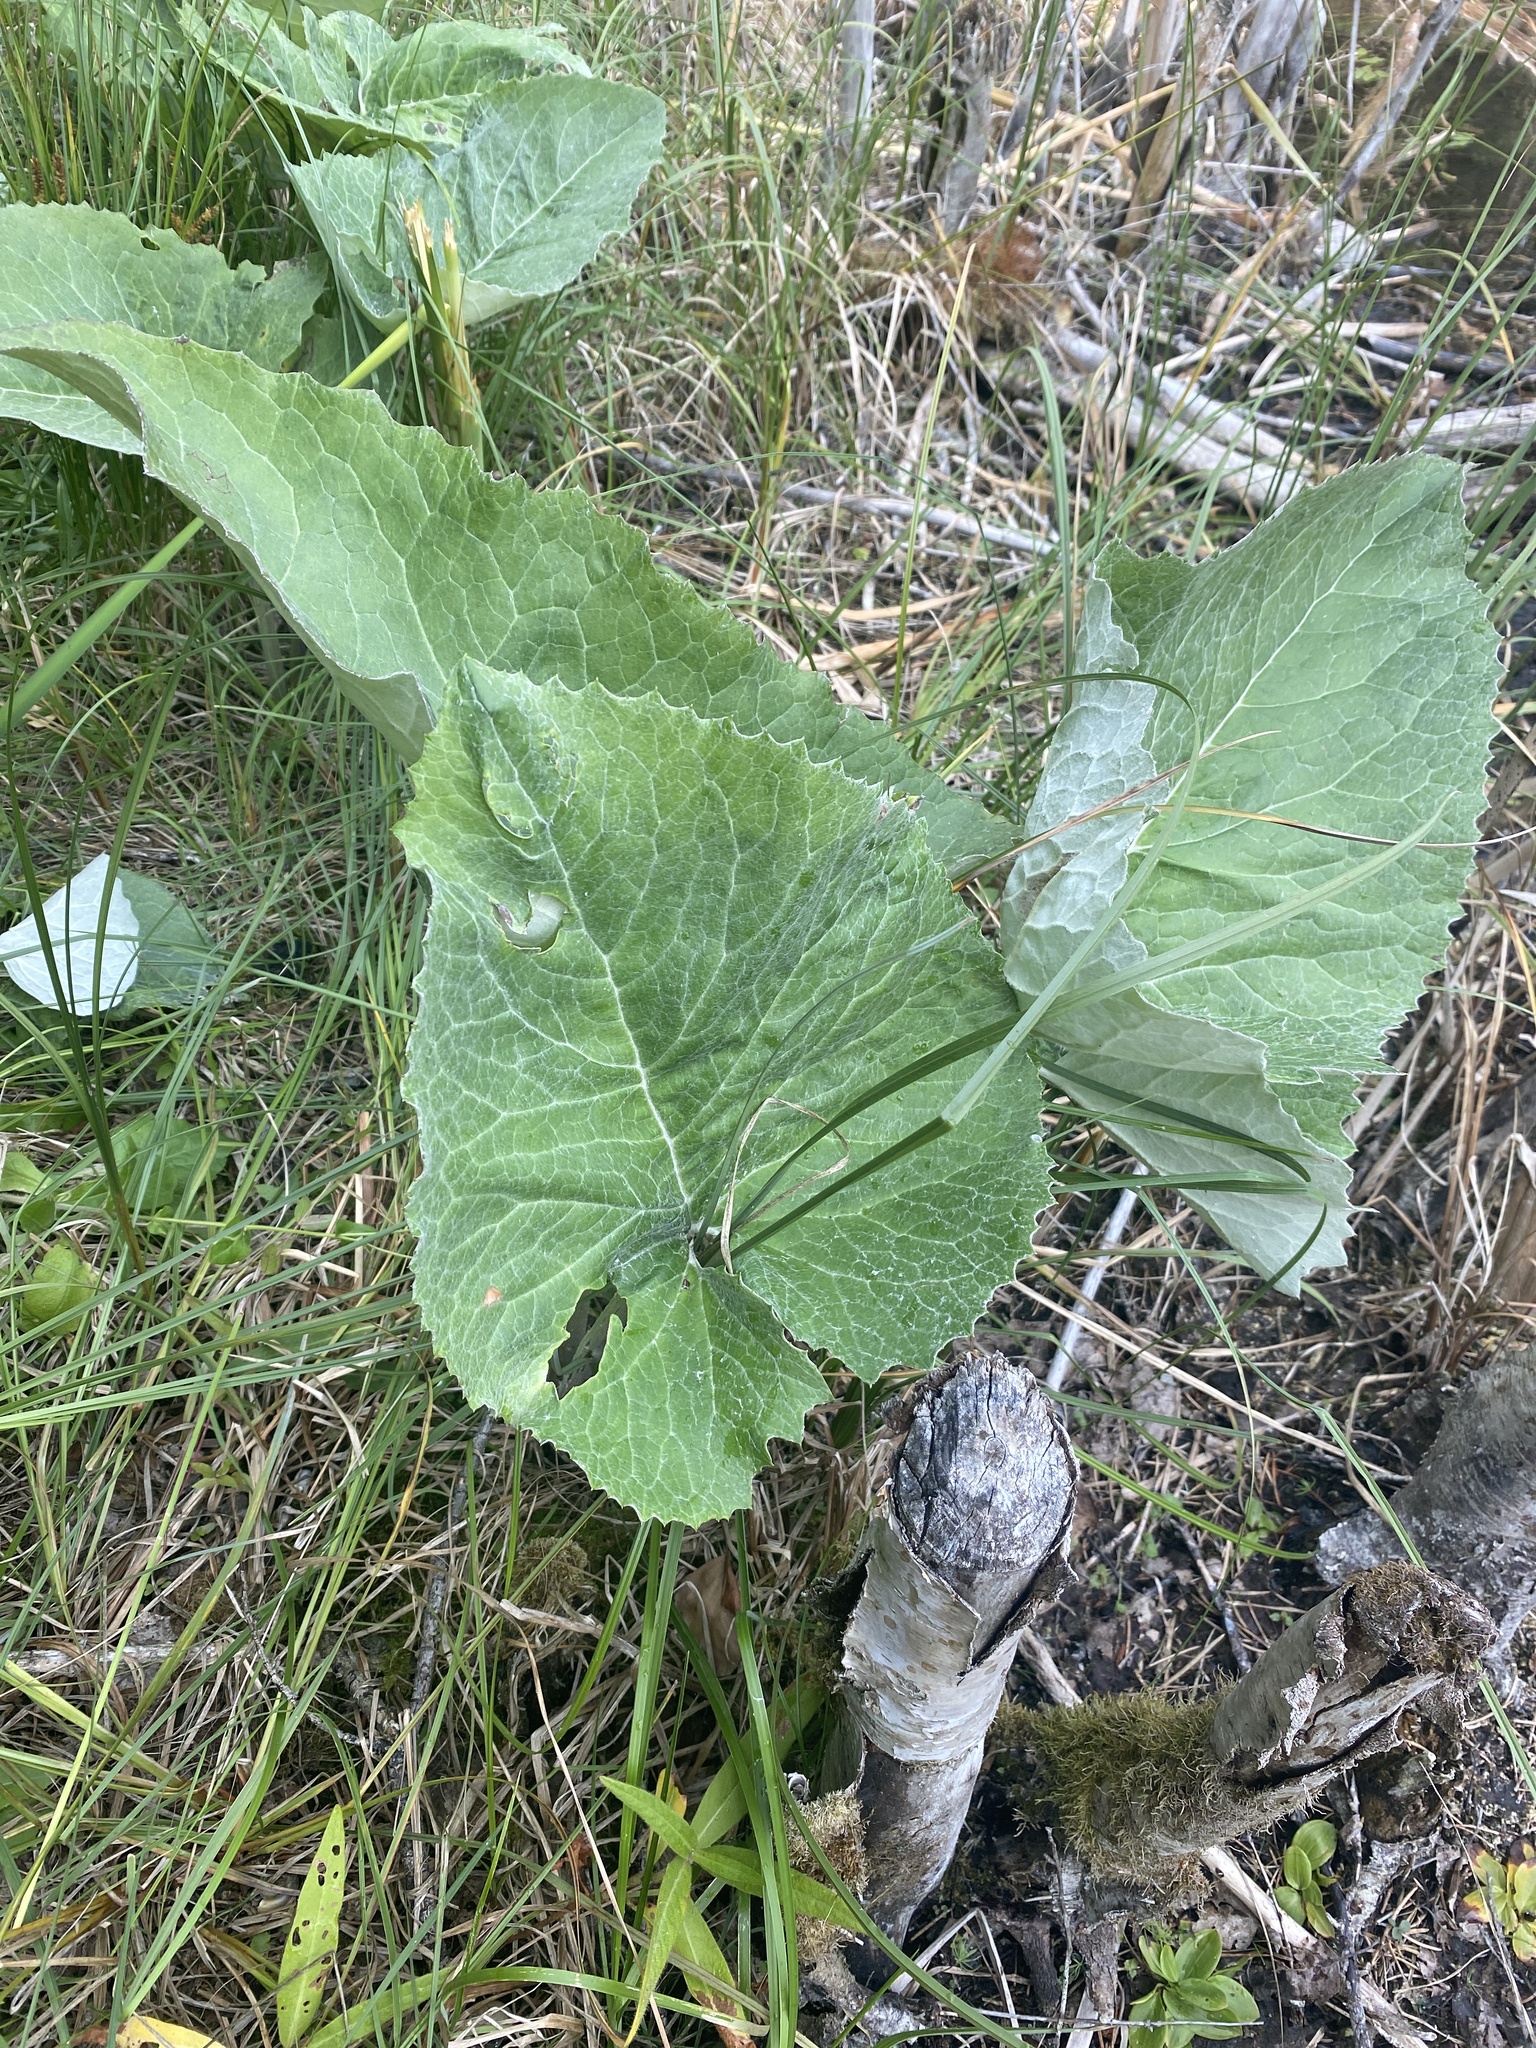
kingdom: Plantae
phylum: Tracheophyta
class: Magnoliopsida
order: Asterales
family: Asteraceae
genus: Petasites
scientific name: Petasites frigidus
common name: Arctic butterbur
